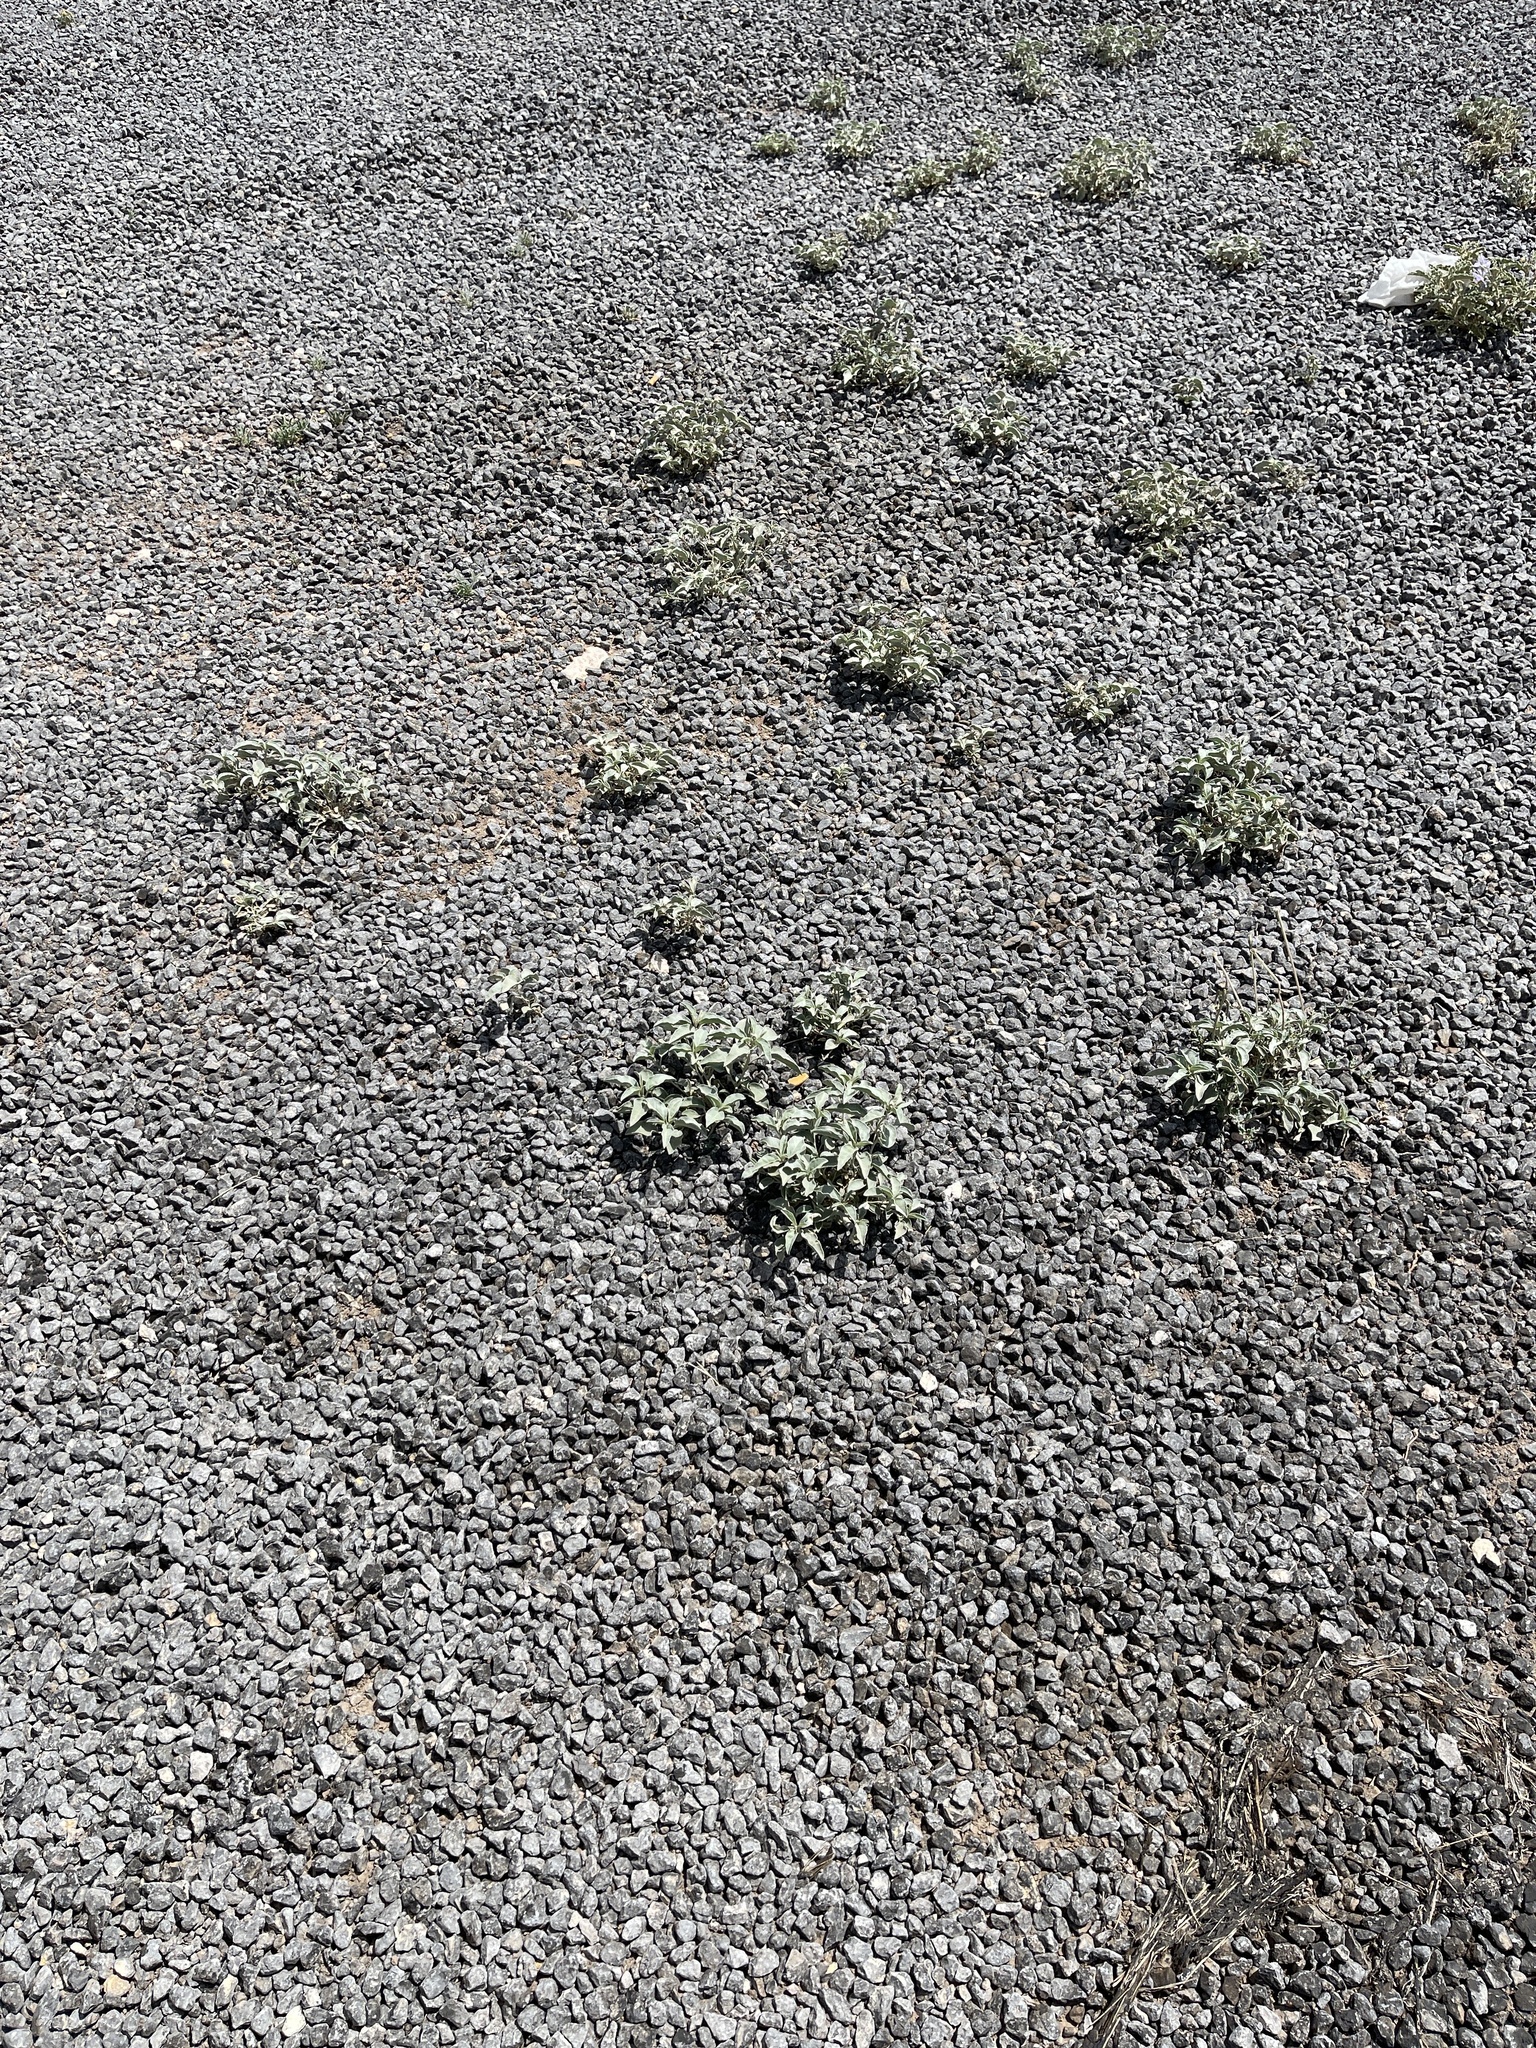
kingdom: Plantae
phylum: Tracheophyta
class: Magnoliopsida
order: Malpighiales
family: Euphorbiaceae
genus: Croton
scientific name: Croton pottsii
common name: Leatherweed
